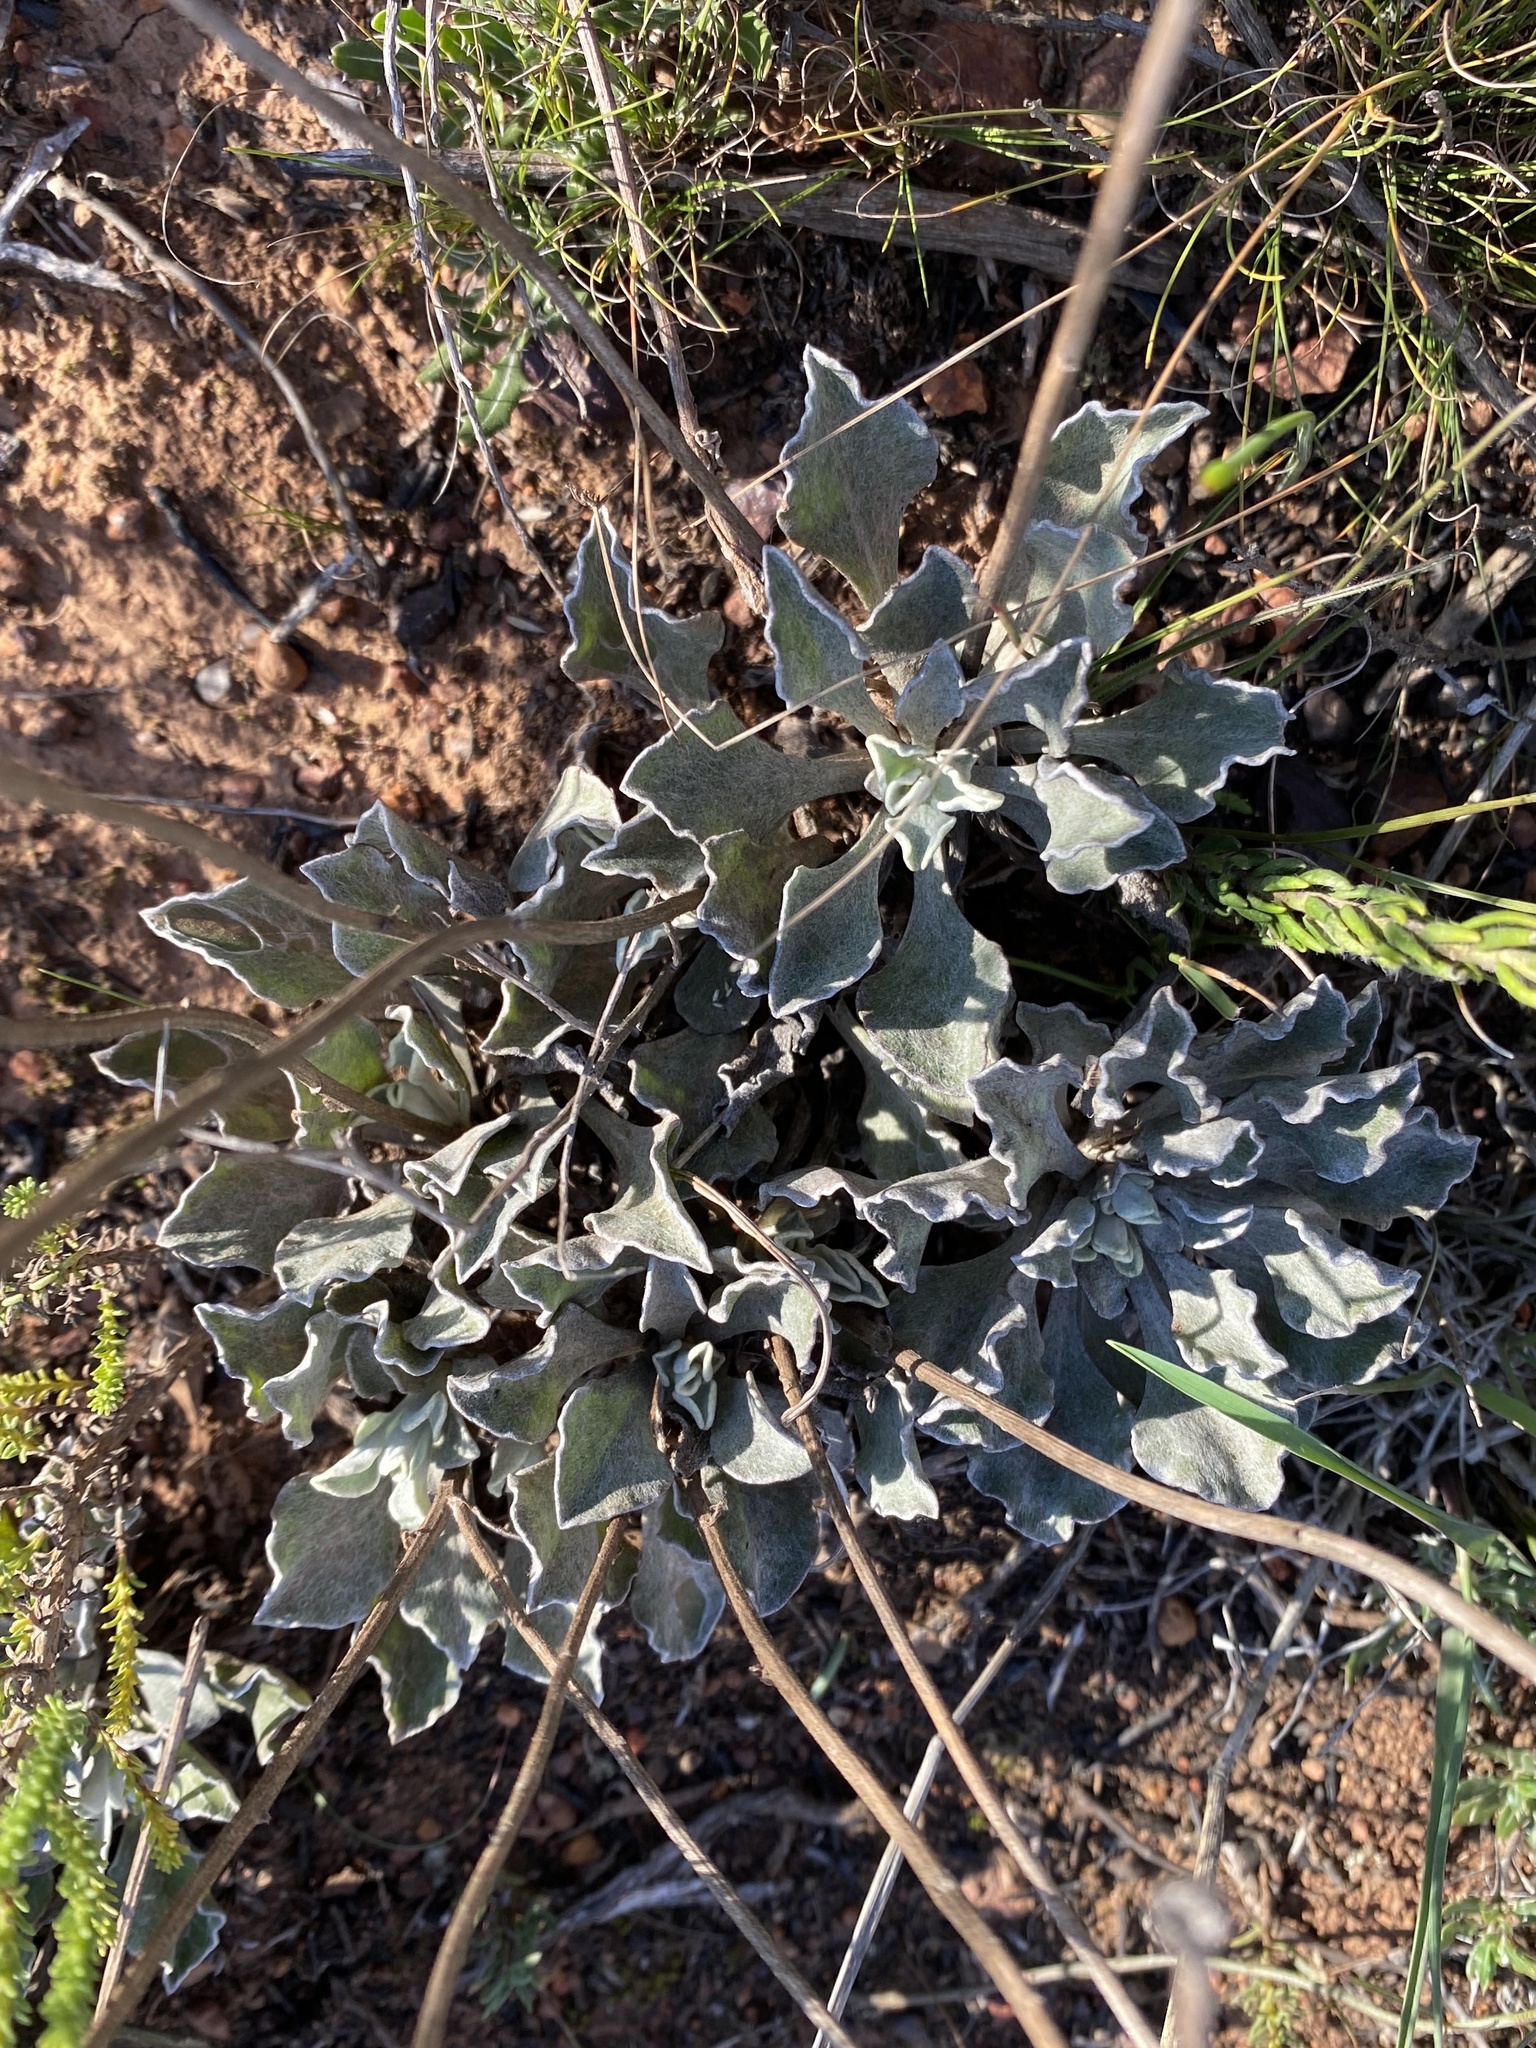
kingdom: Plantae
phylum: Tracheophyta
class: Magnoliopsida
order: Asterales
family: Asteraceae
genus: Osteospermum
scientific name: Osteospermum tomentosum
